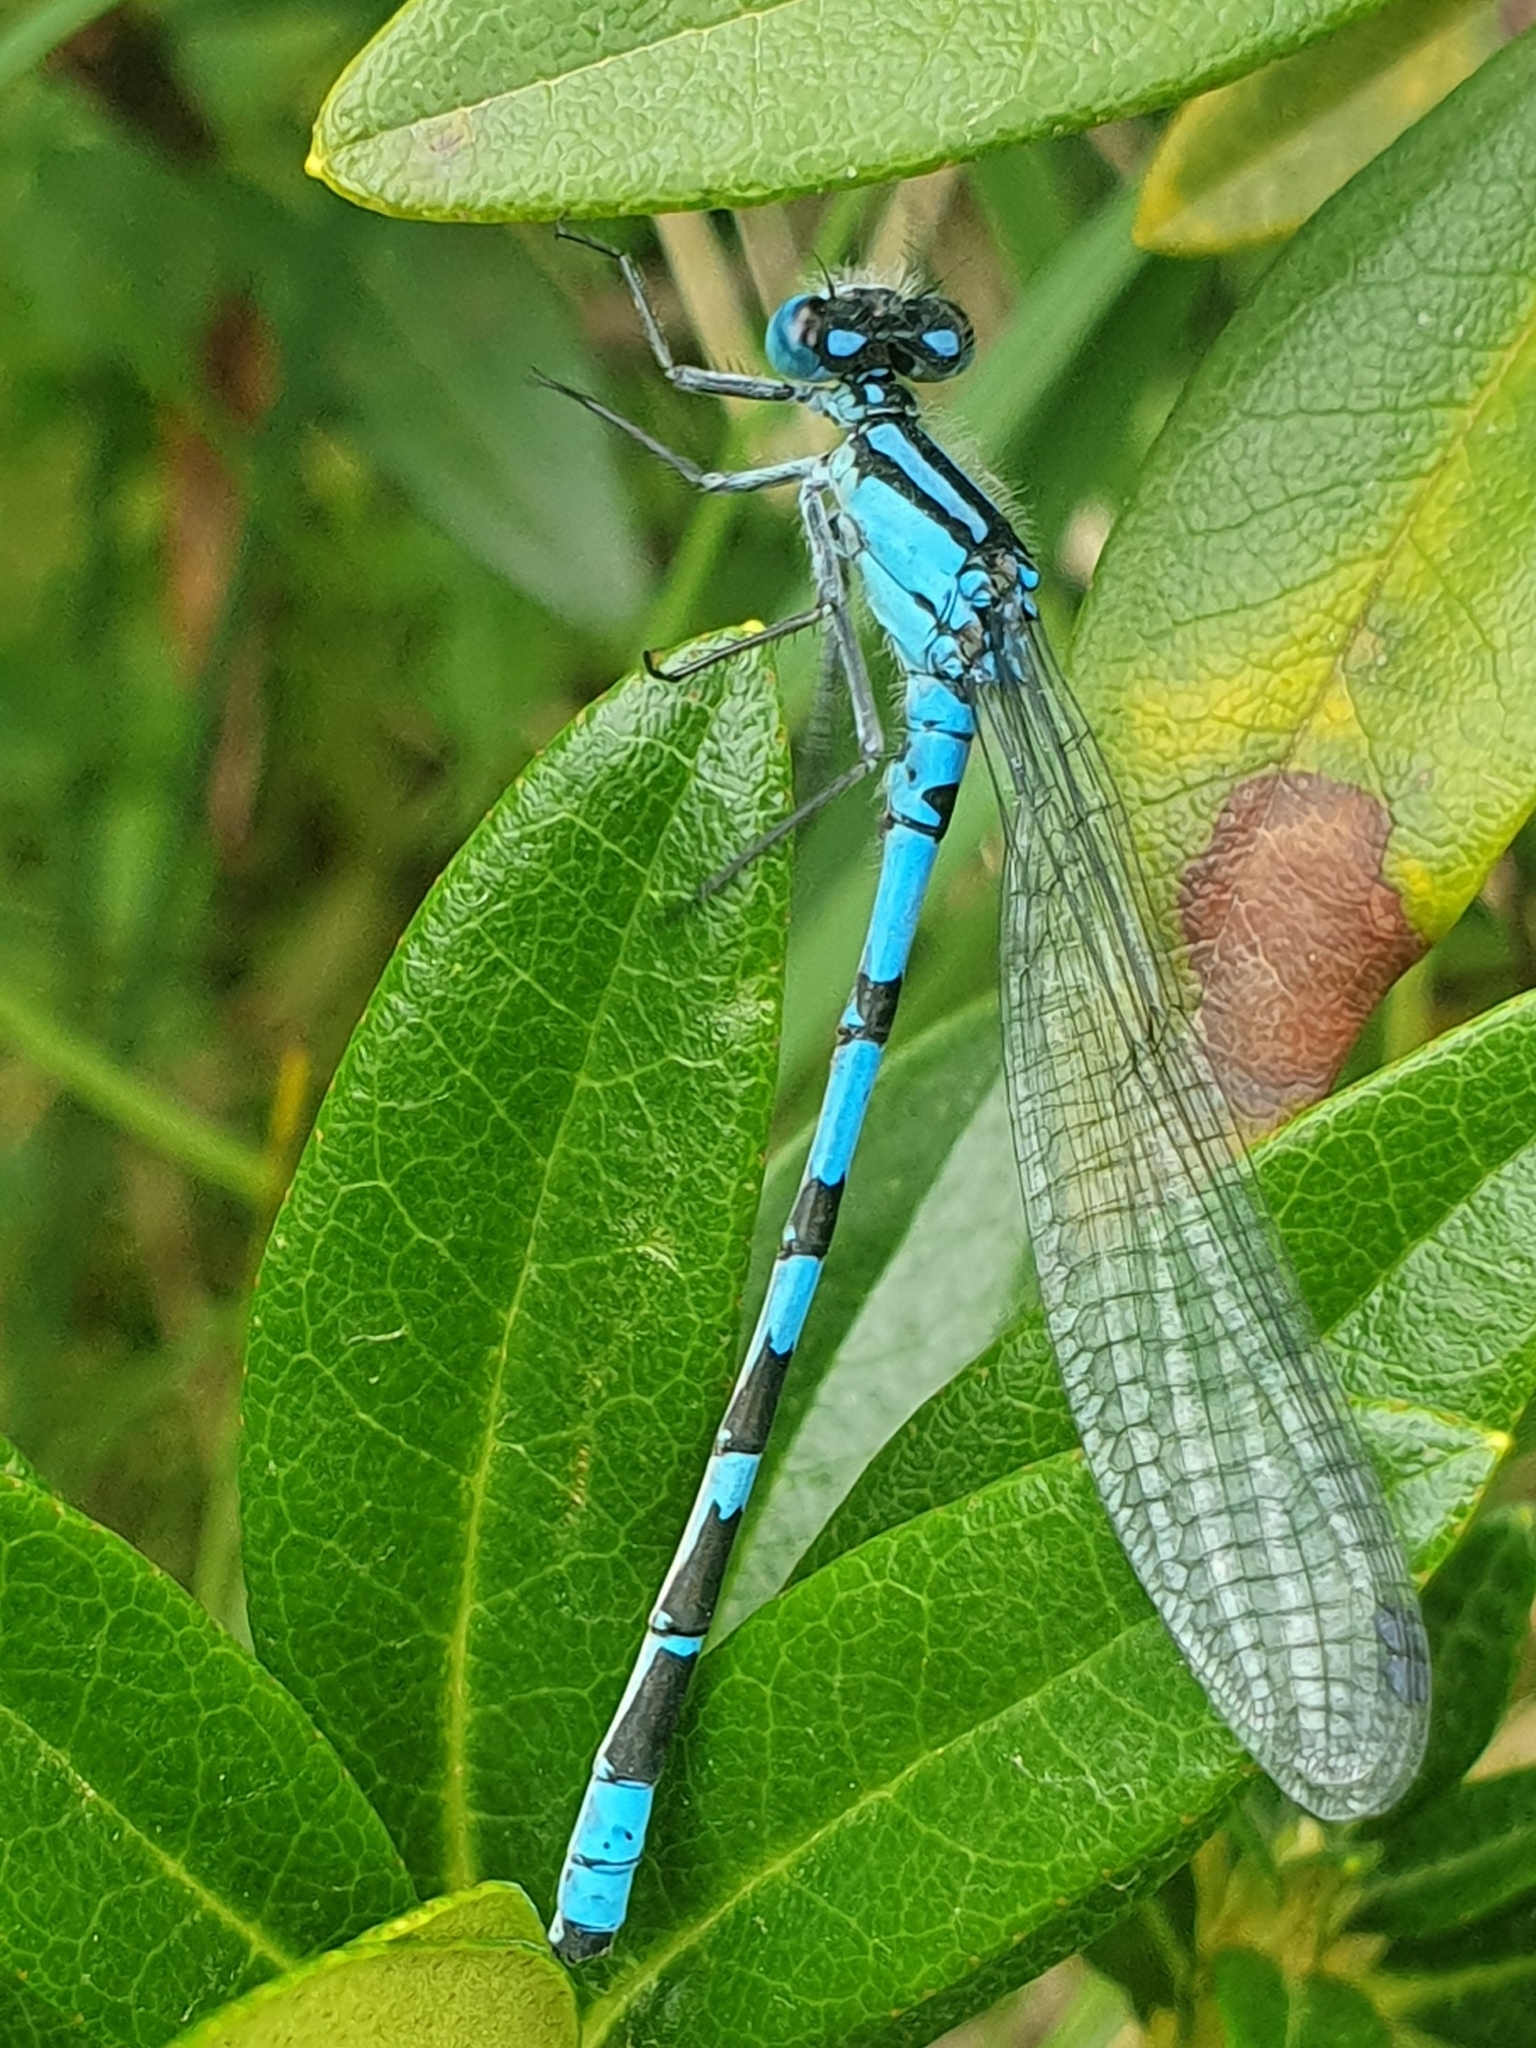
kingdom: Animalia
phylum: Arthropoda
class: Insecta
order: Odonata
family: Coenagrionidae
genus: Enallagma
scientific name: Enallagma cyathigerum
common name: Common blue damselfly
